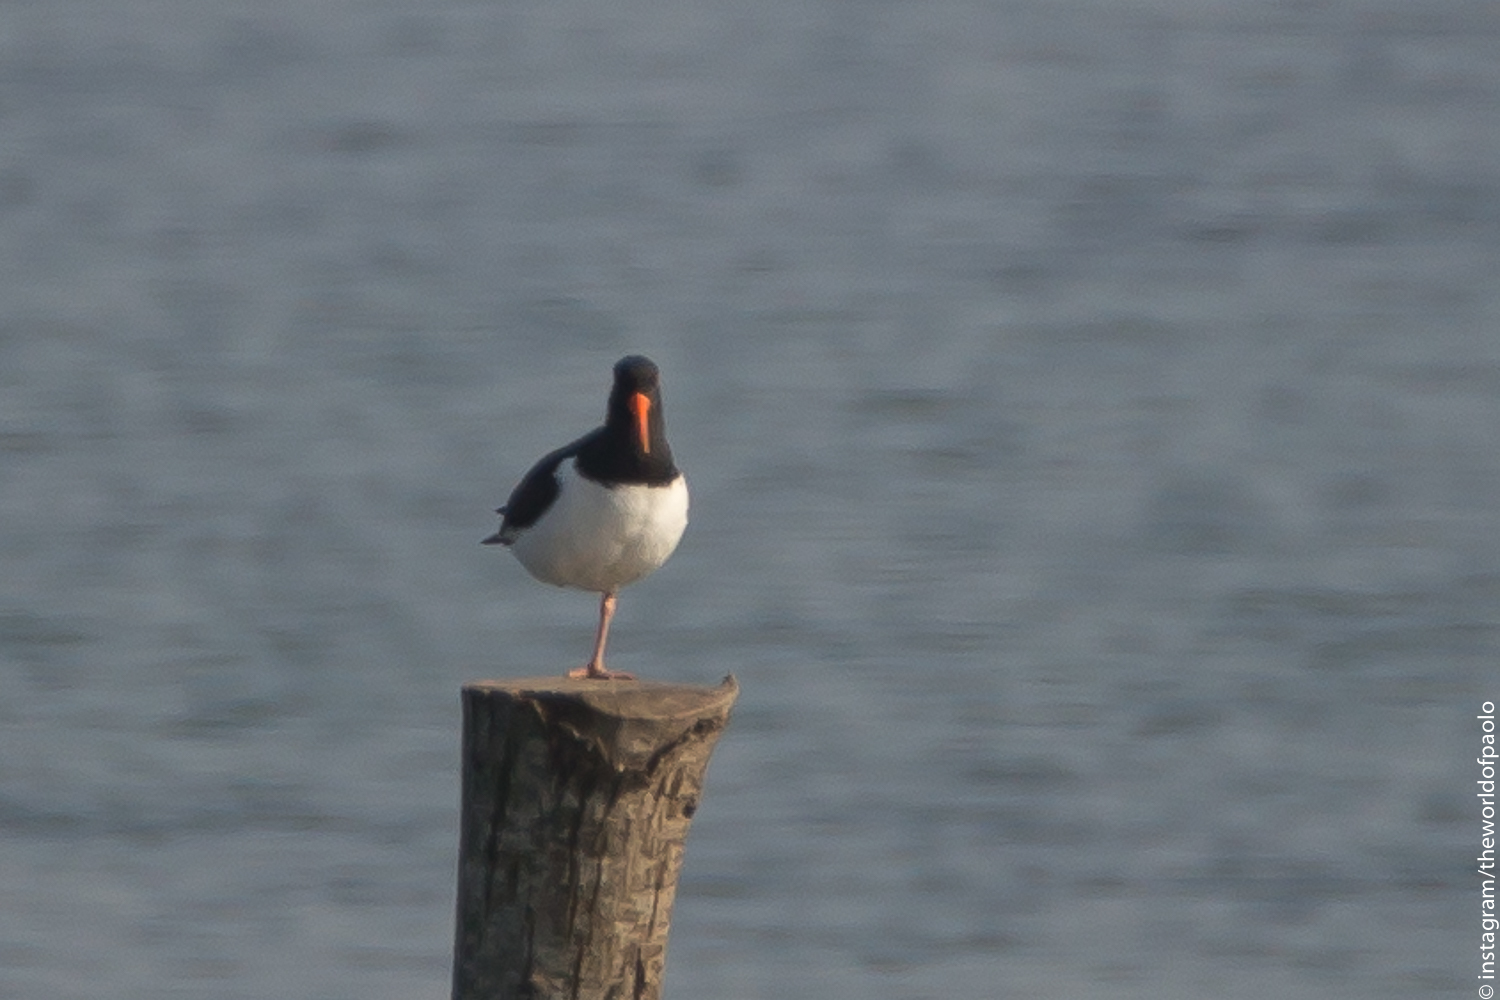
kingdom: Animalia
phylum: Chordata
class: Aves
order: Charadriiformes
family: Haematopodidae
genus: Haematopus
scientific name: Haematopus ostralegus
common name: Eurasian oystercatcher
